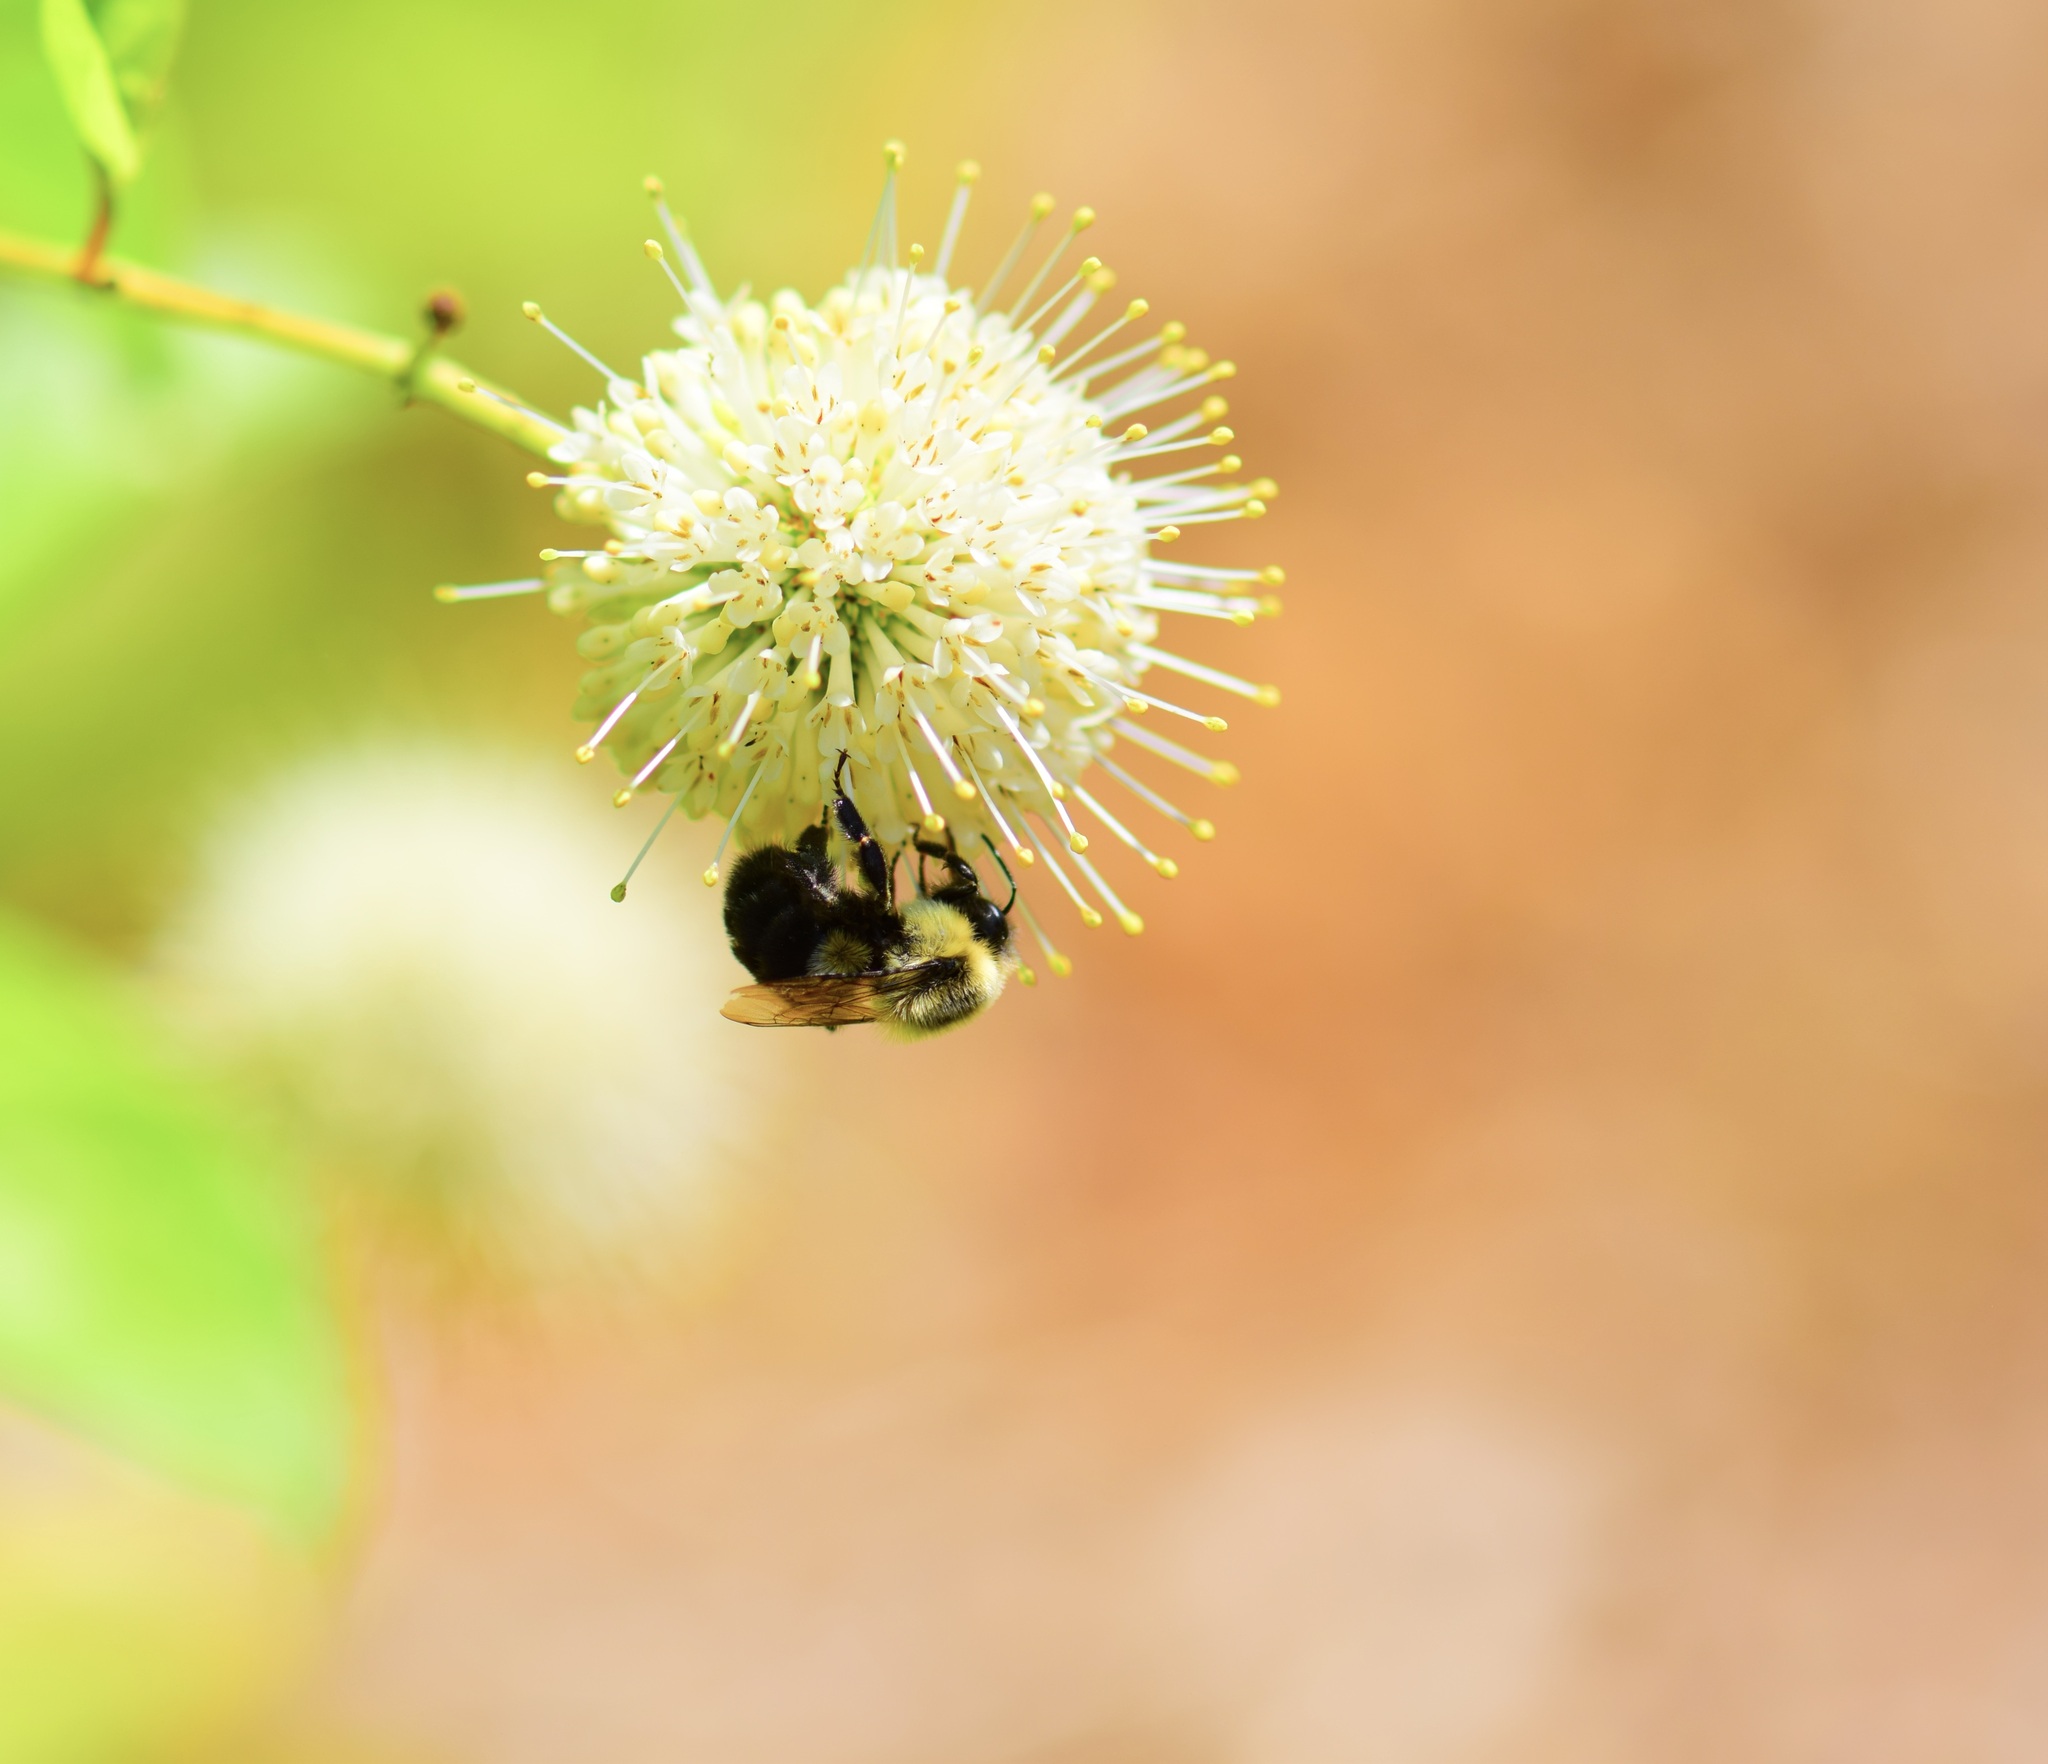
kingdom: Animalia
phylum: Arthropoda
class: Insecta
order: Hymenoptera
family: Apidae
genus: Bombus
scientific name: Bombus impatiens
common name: Common eastern bumble bee
